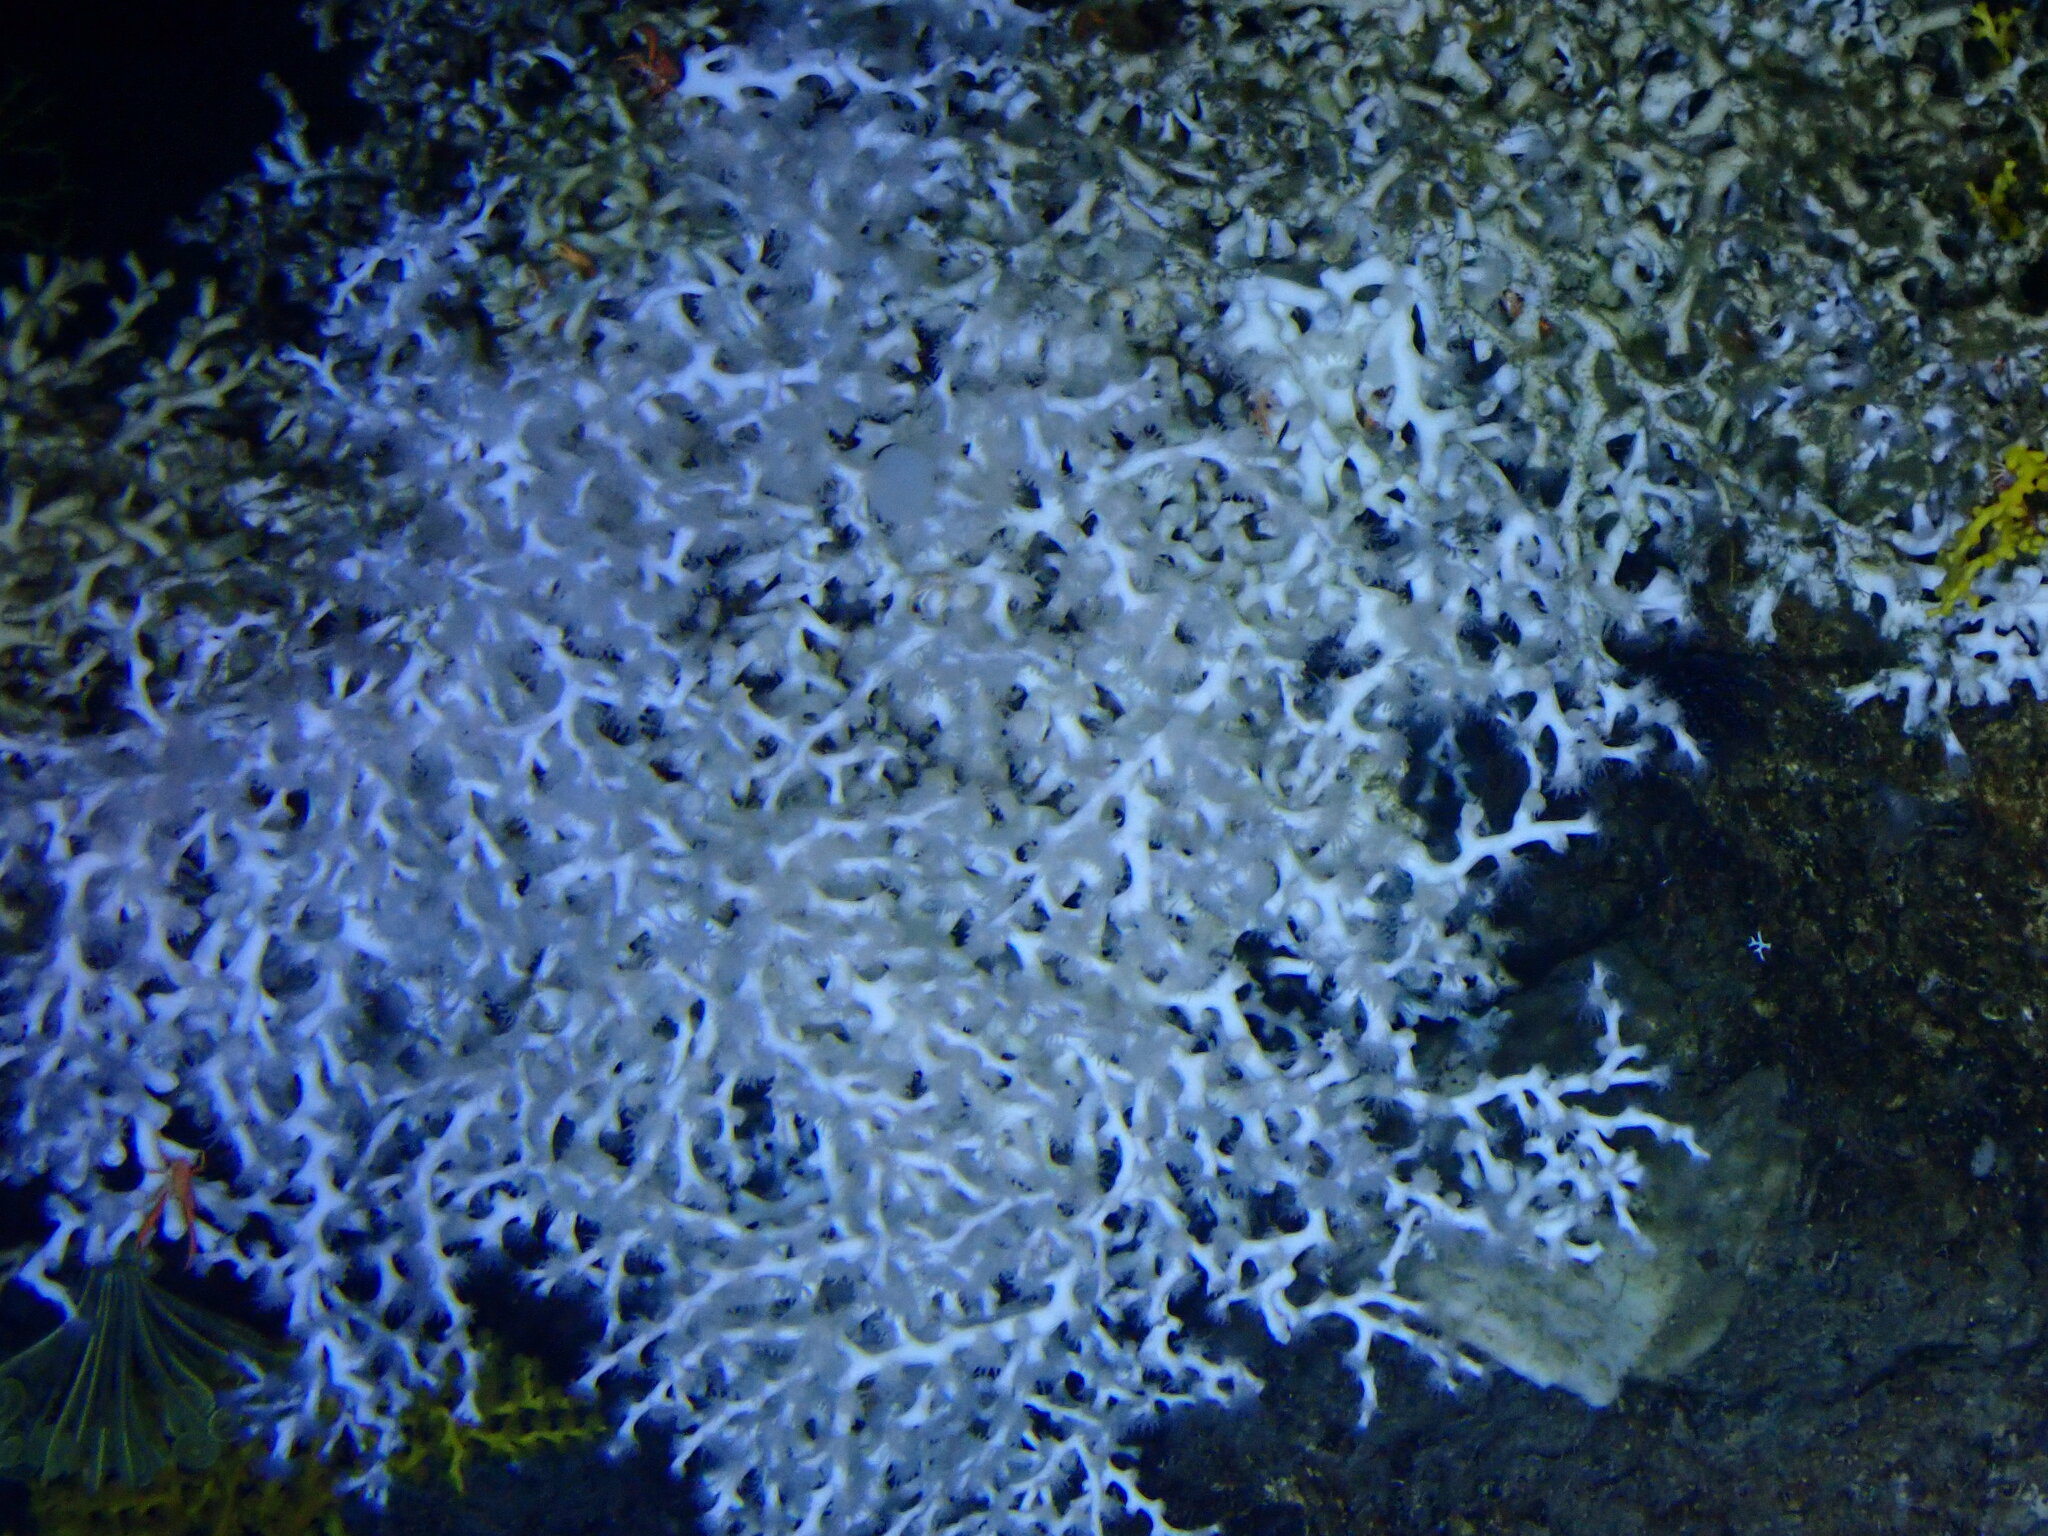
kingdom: Animalia
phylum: Cnidaria
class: Anthozoa
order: Scleractinia
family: Caryophylliidae
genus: Desmophyllum
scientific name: Desmophyllum pertusum
